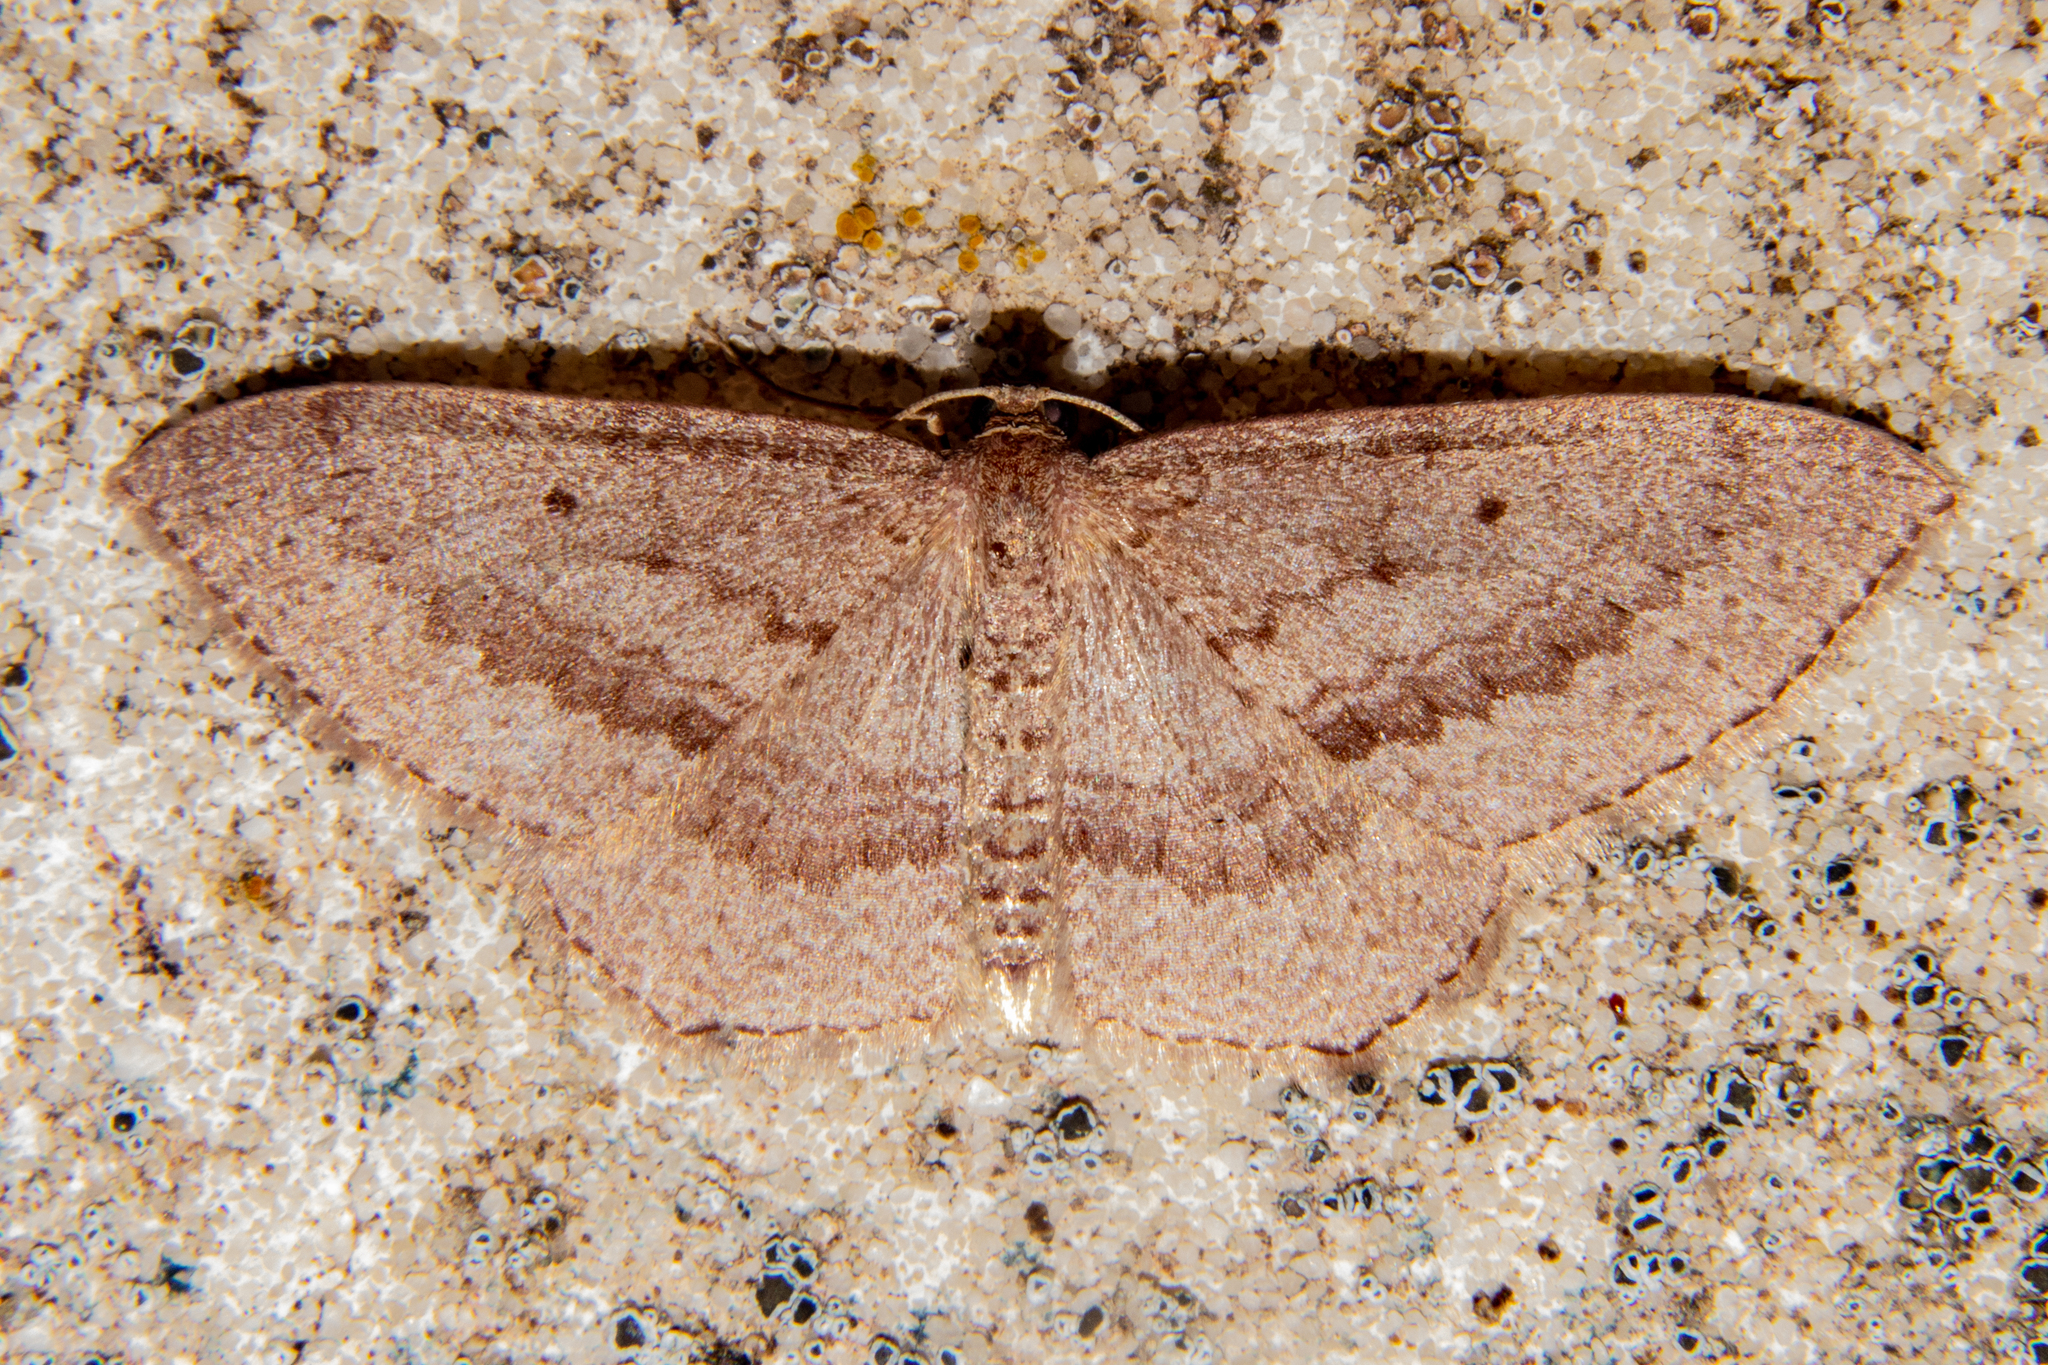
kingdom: Animalia
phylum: Arthropoda
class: Insecta
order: Lepidoptera
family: Geometridae
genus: Poecilasthena
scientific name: Poecilasthena subpurpureata
